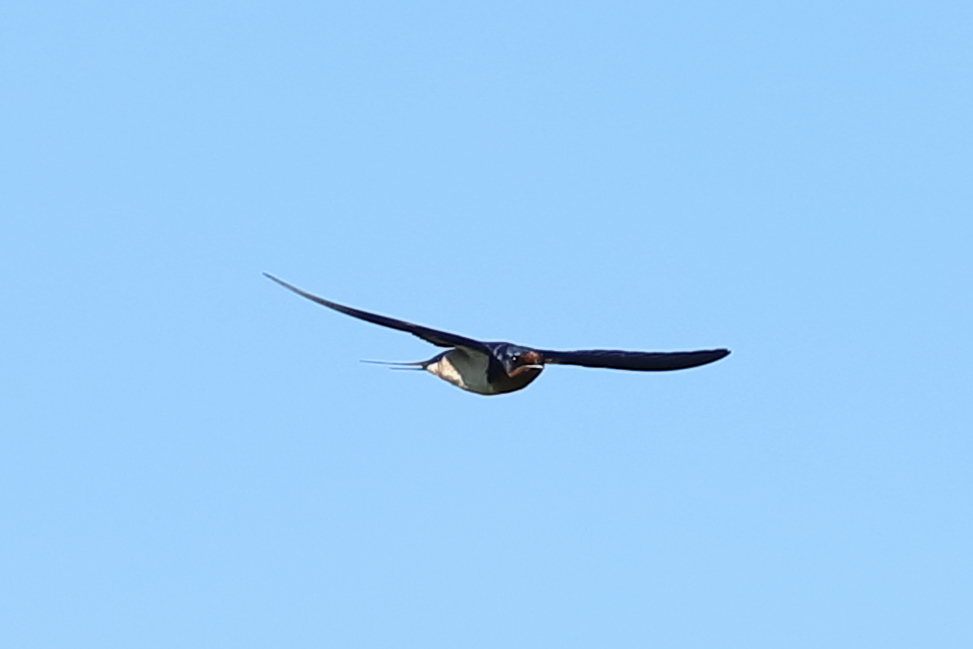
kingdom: Animalia
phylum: Chordata
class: Aves
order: Passeriformes
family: Hirundinidae
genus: Hirundo
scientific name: Hirundo rustica
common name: Barn swallow
